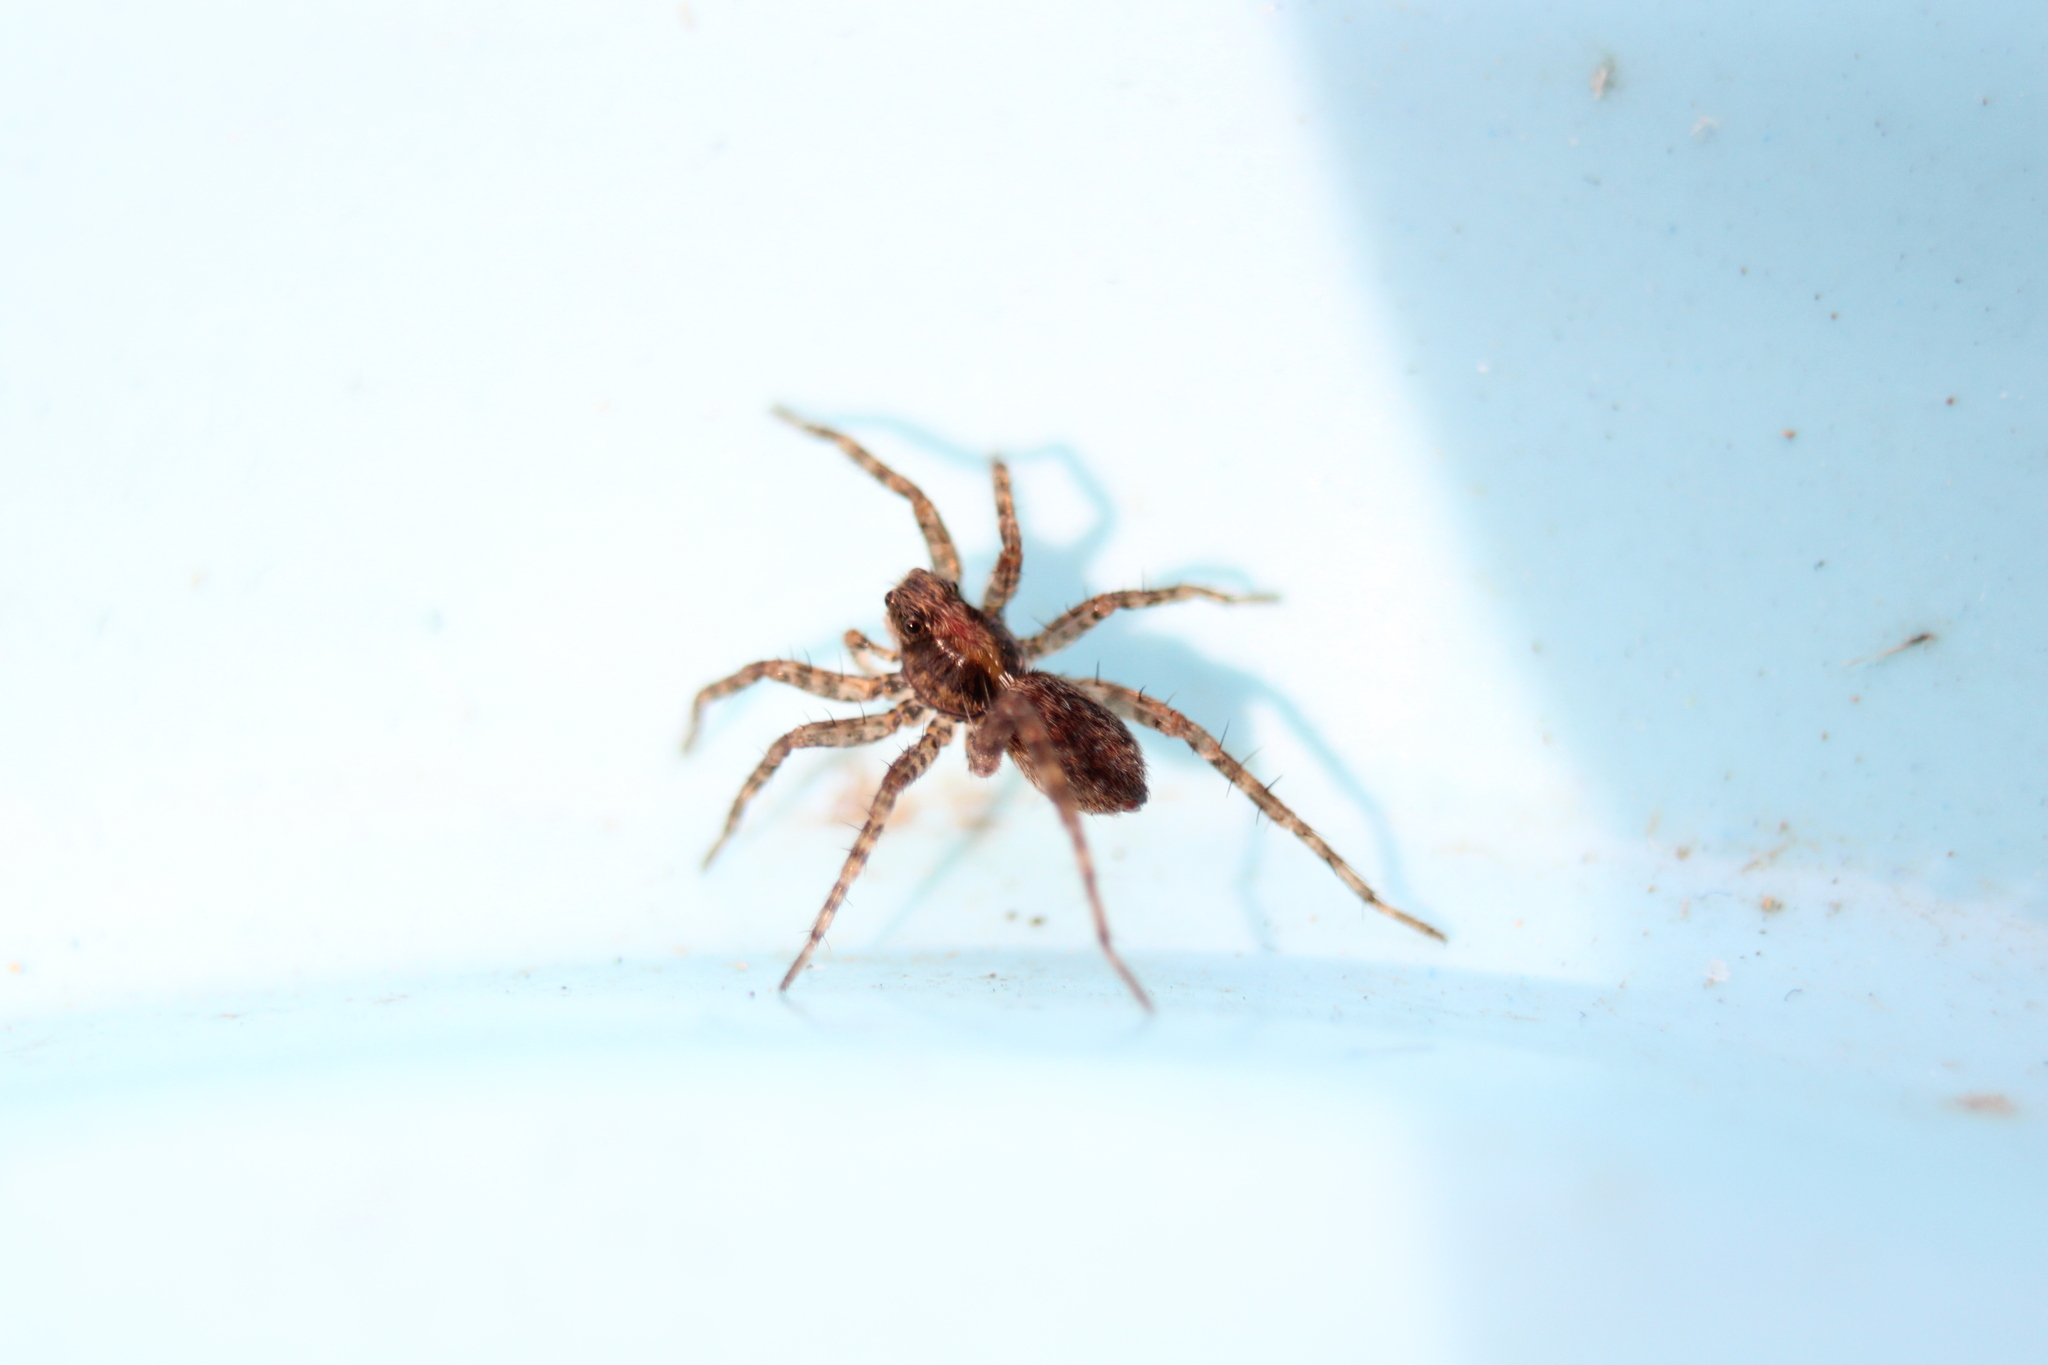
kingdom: Animalia
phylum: Arthropoda
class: Arachnida
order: Araneae
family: Lycosidae
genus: Pardosa
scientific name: Pardosa milvina
